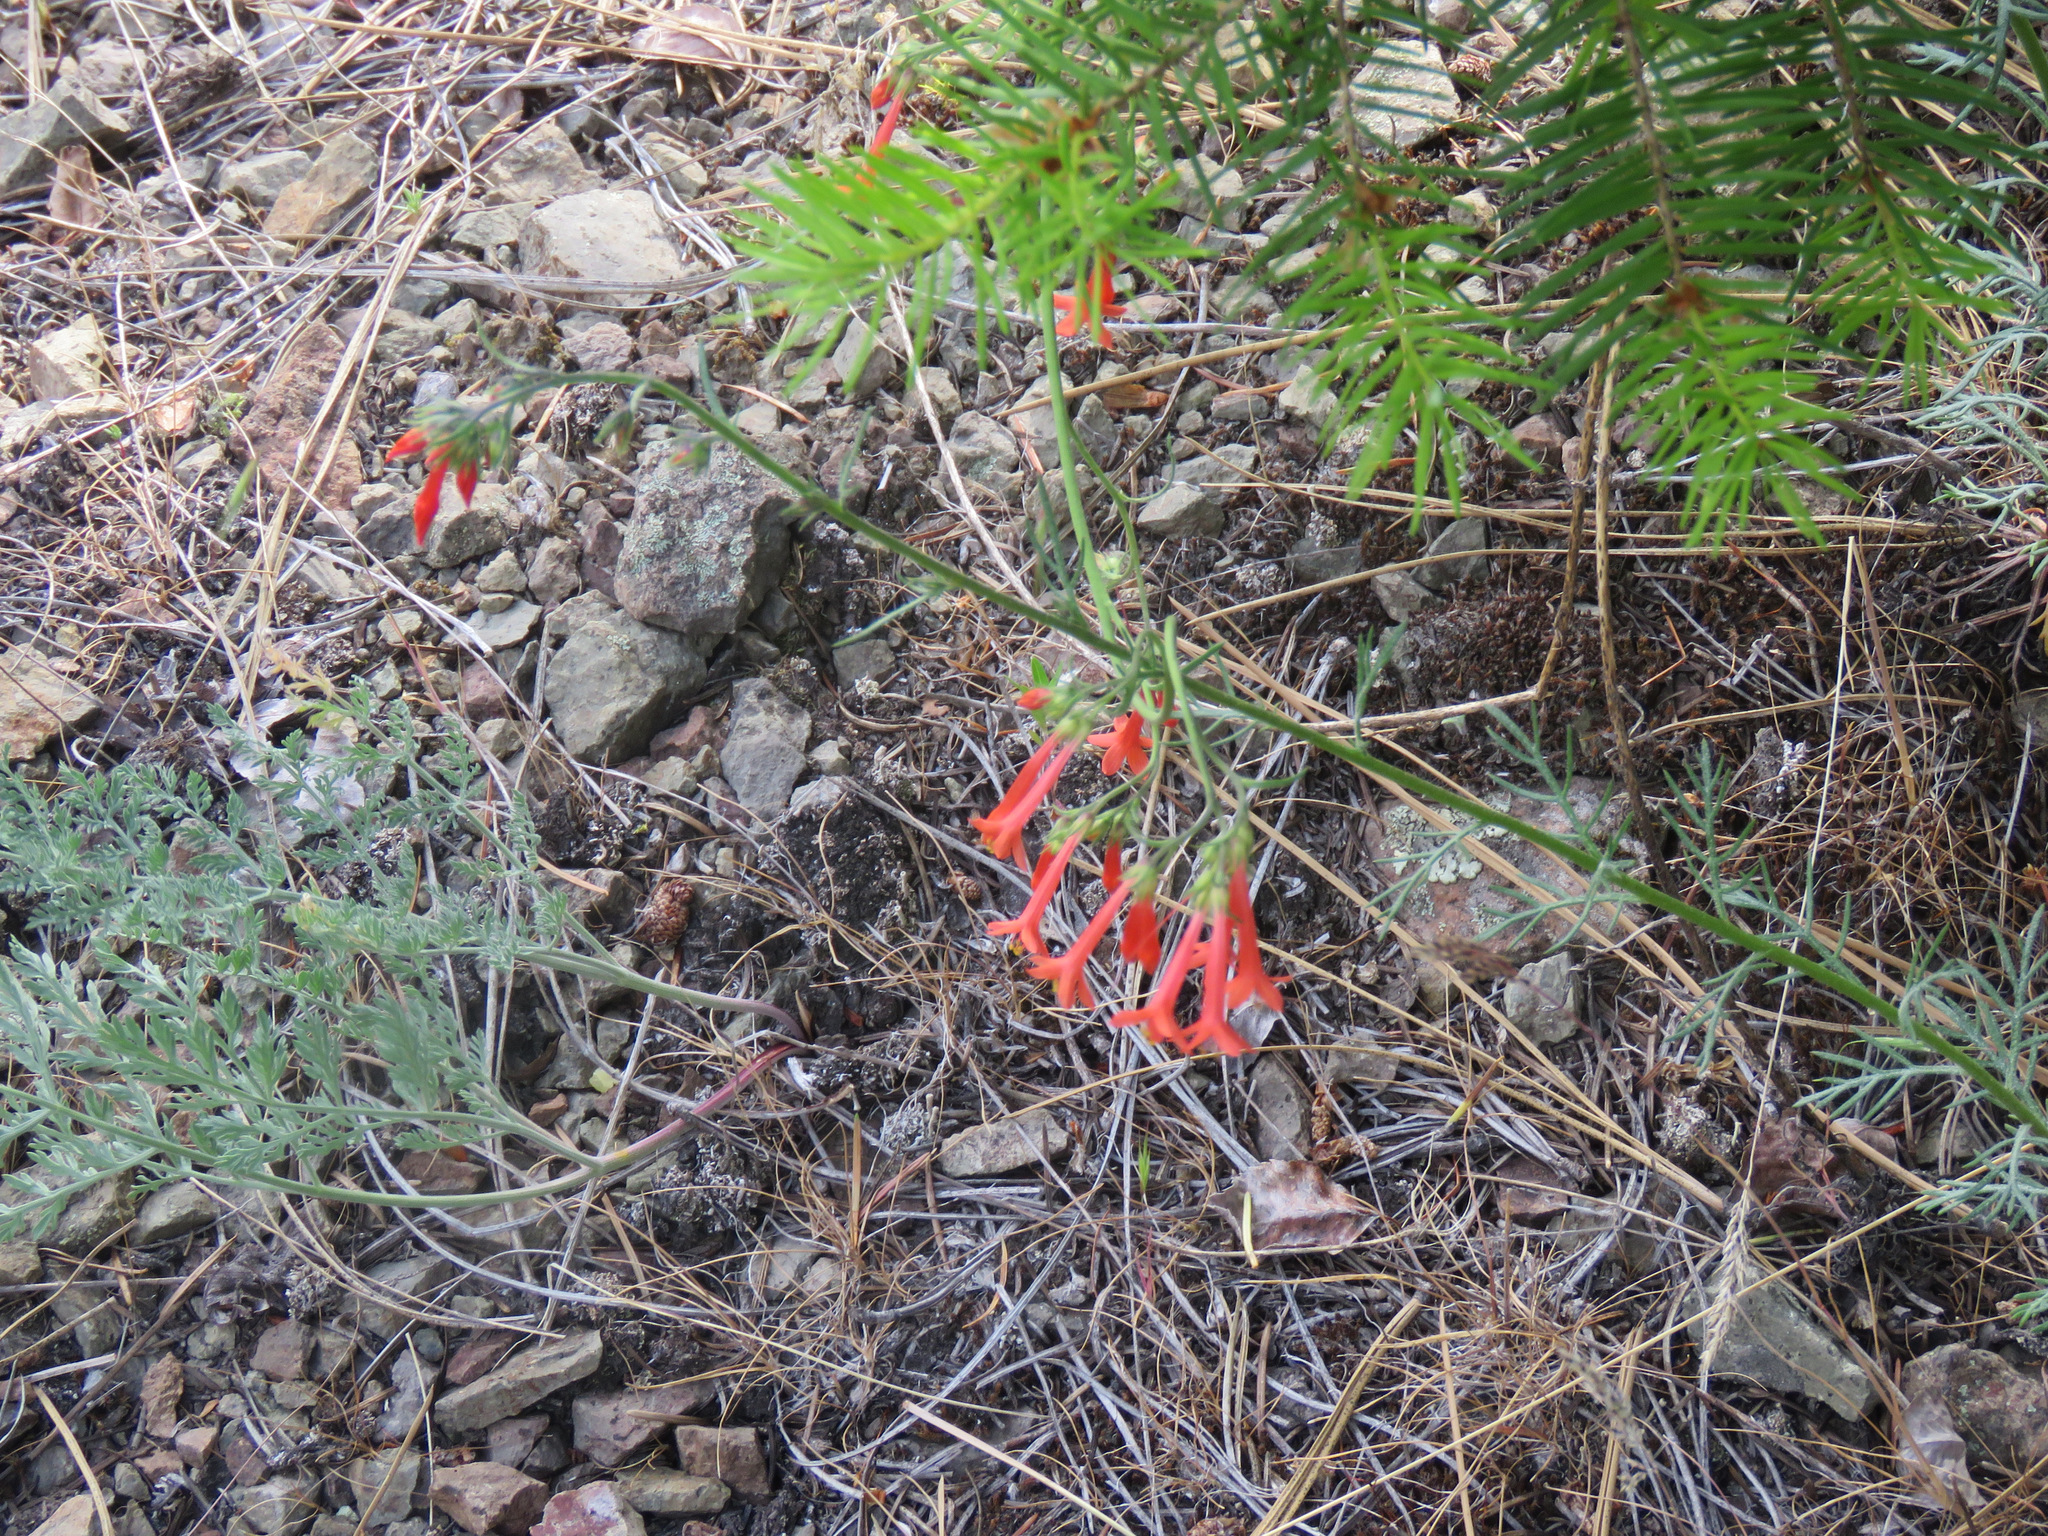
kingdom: Plantae
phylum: Tracheophyta
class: Magnoliopsida
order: Ericales
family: Polemoniaceae
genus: Ipomopsis
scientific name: Ipomopsis aggregata
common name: Scarlet gilia
